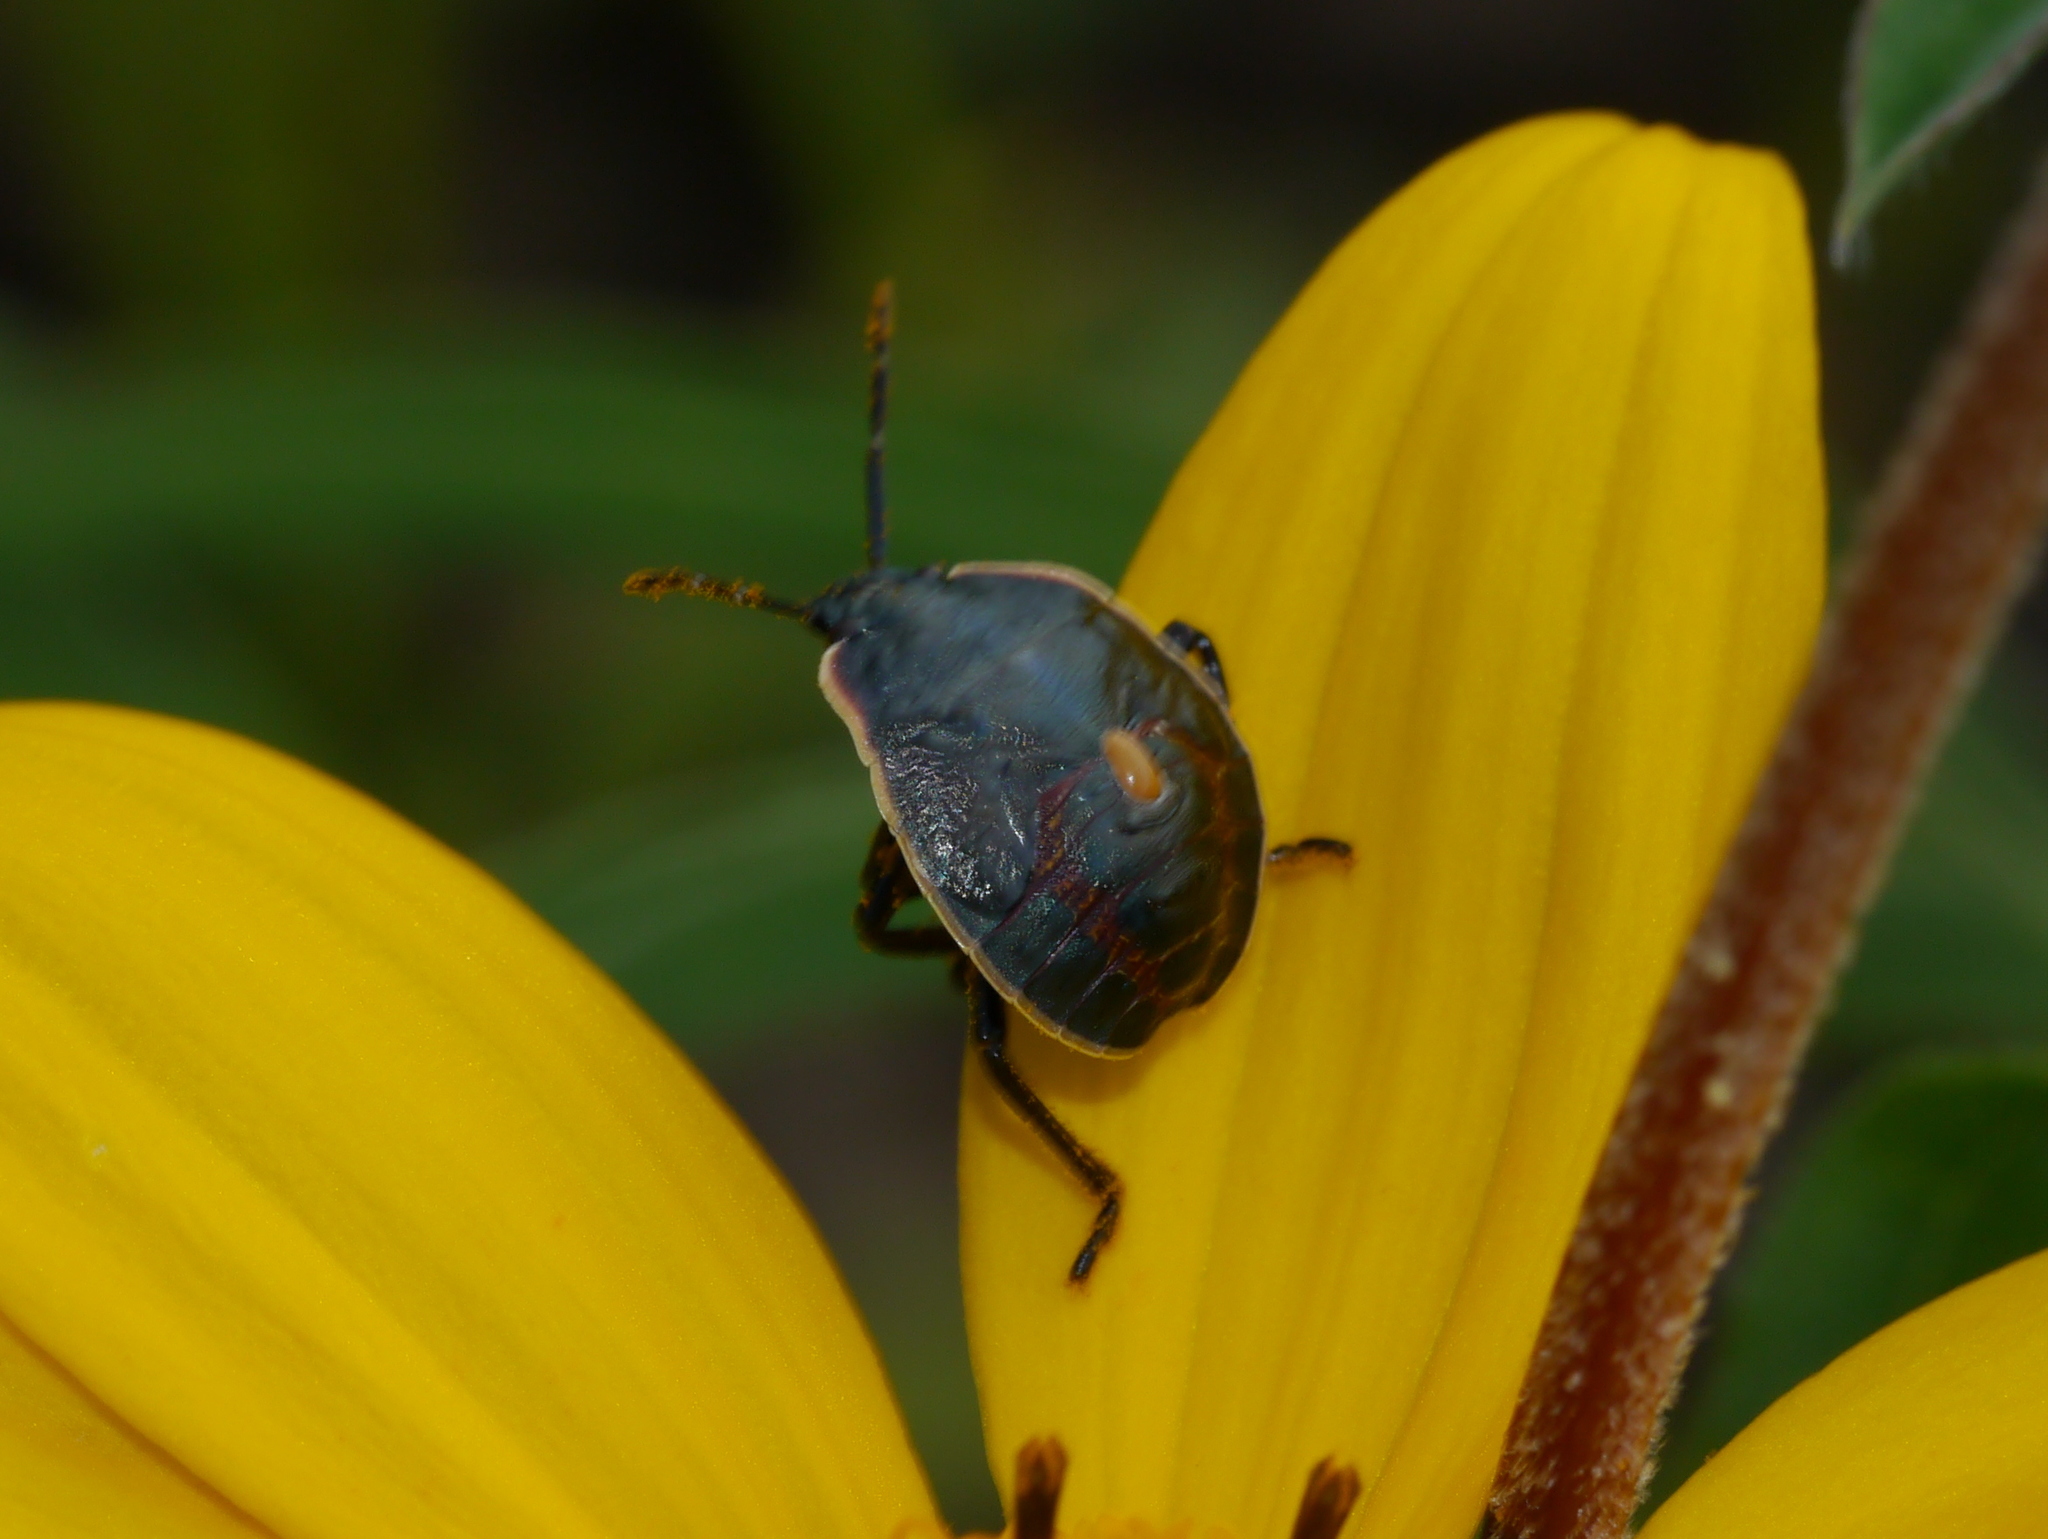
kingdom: Animalia
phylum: Arthropoda
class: Insecta
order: Hemiptera
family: Pentatomidae
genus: Apateticus
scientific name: Apateticus marginiventris
